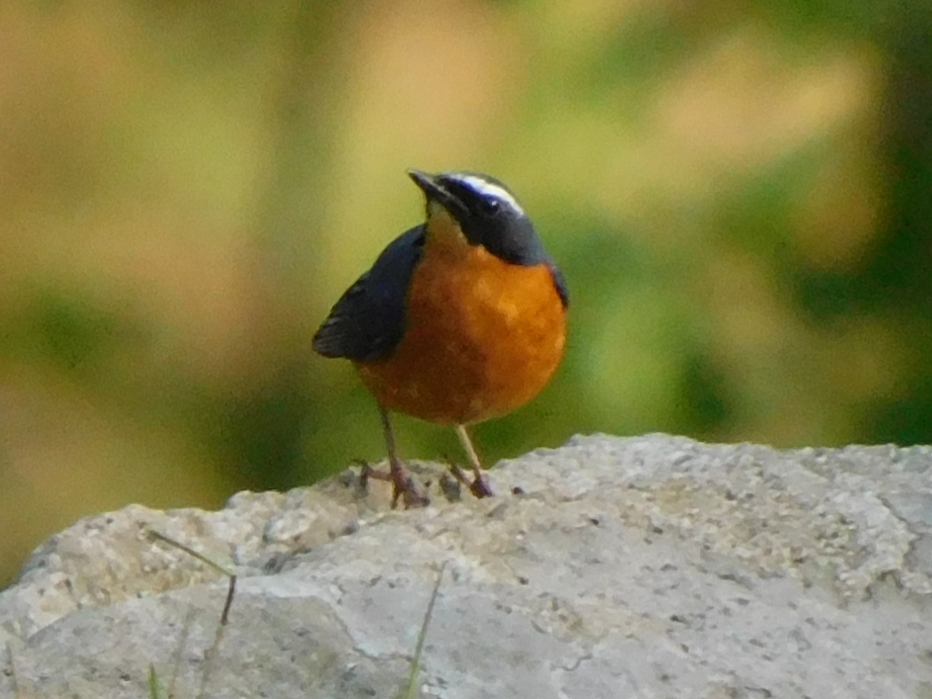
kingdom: Animalia
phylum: Chordata
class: Aves
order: Passeriformes
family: Muscicapidae
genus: Luscinia
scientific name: Luscinia brunnea
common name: Indian blue robin
